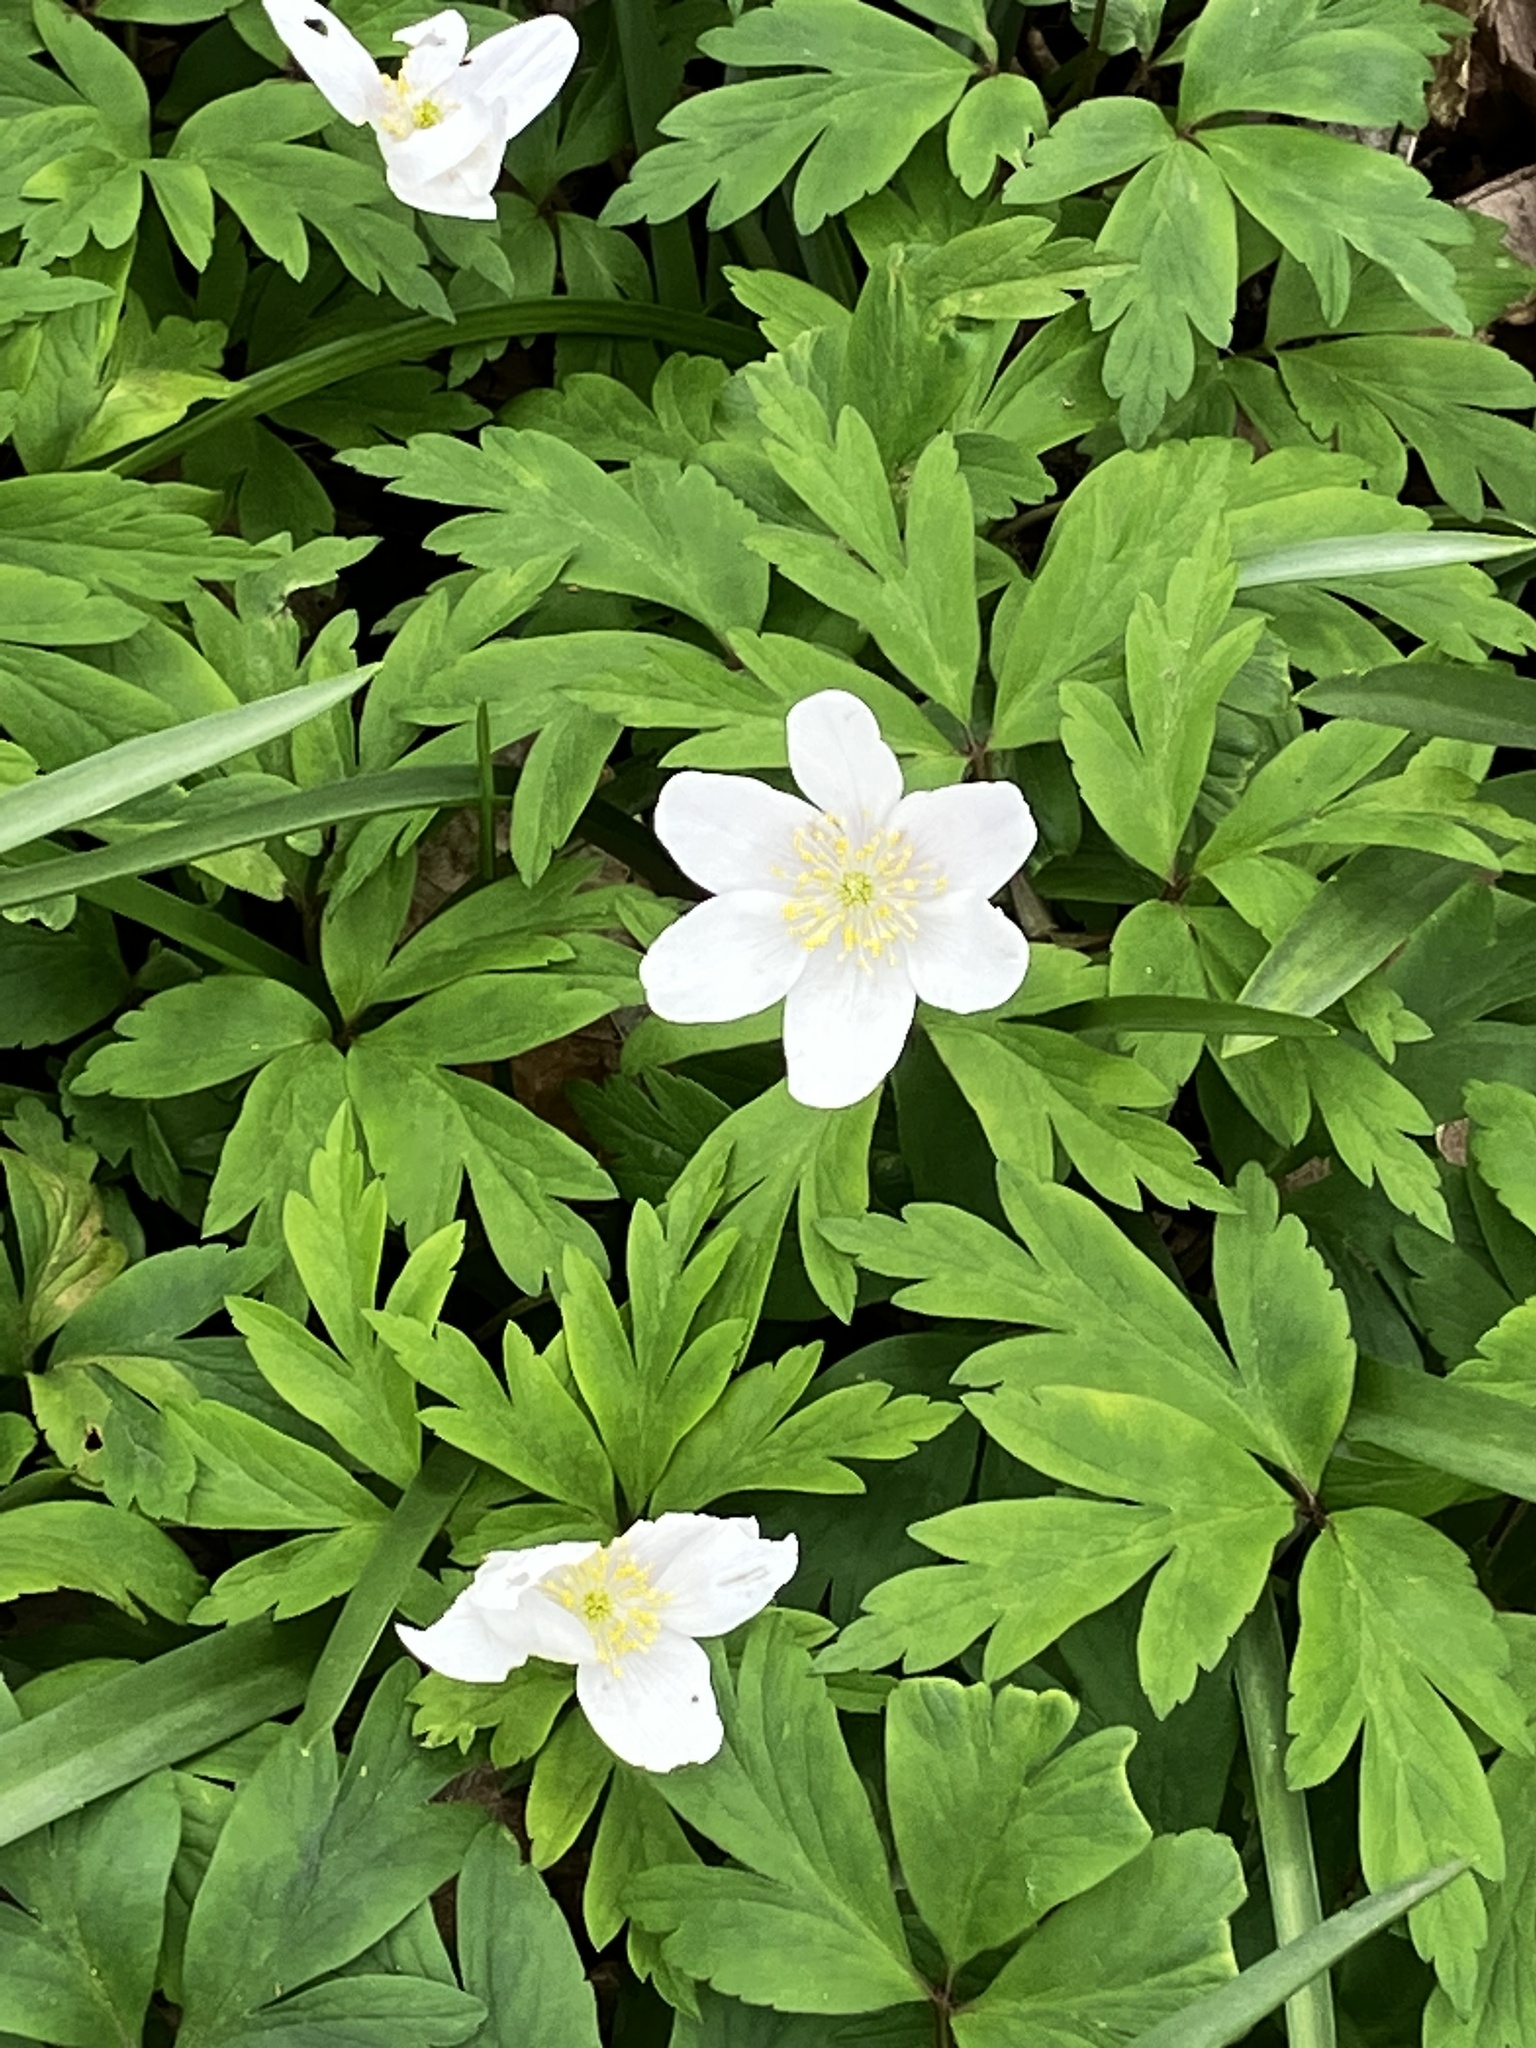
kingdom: Plantae
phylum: Tracheophyta
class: Magnoliopsida
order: Ranunculales
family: Ranunculaceae
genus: Anemone
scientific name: Anemone nemorosa
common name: Wood anemone
